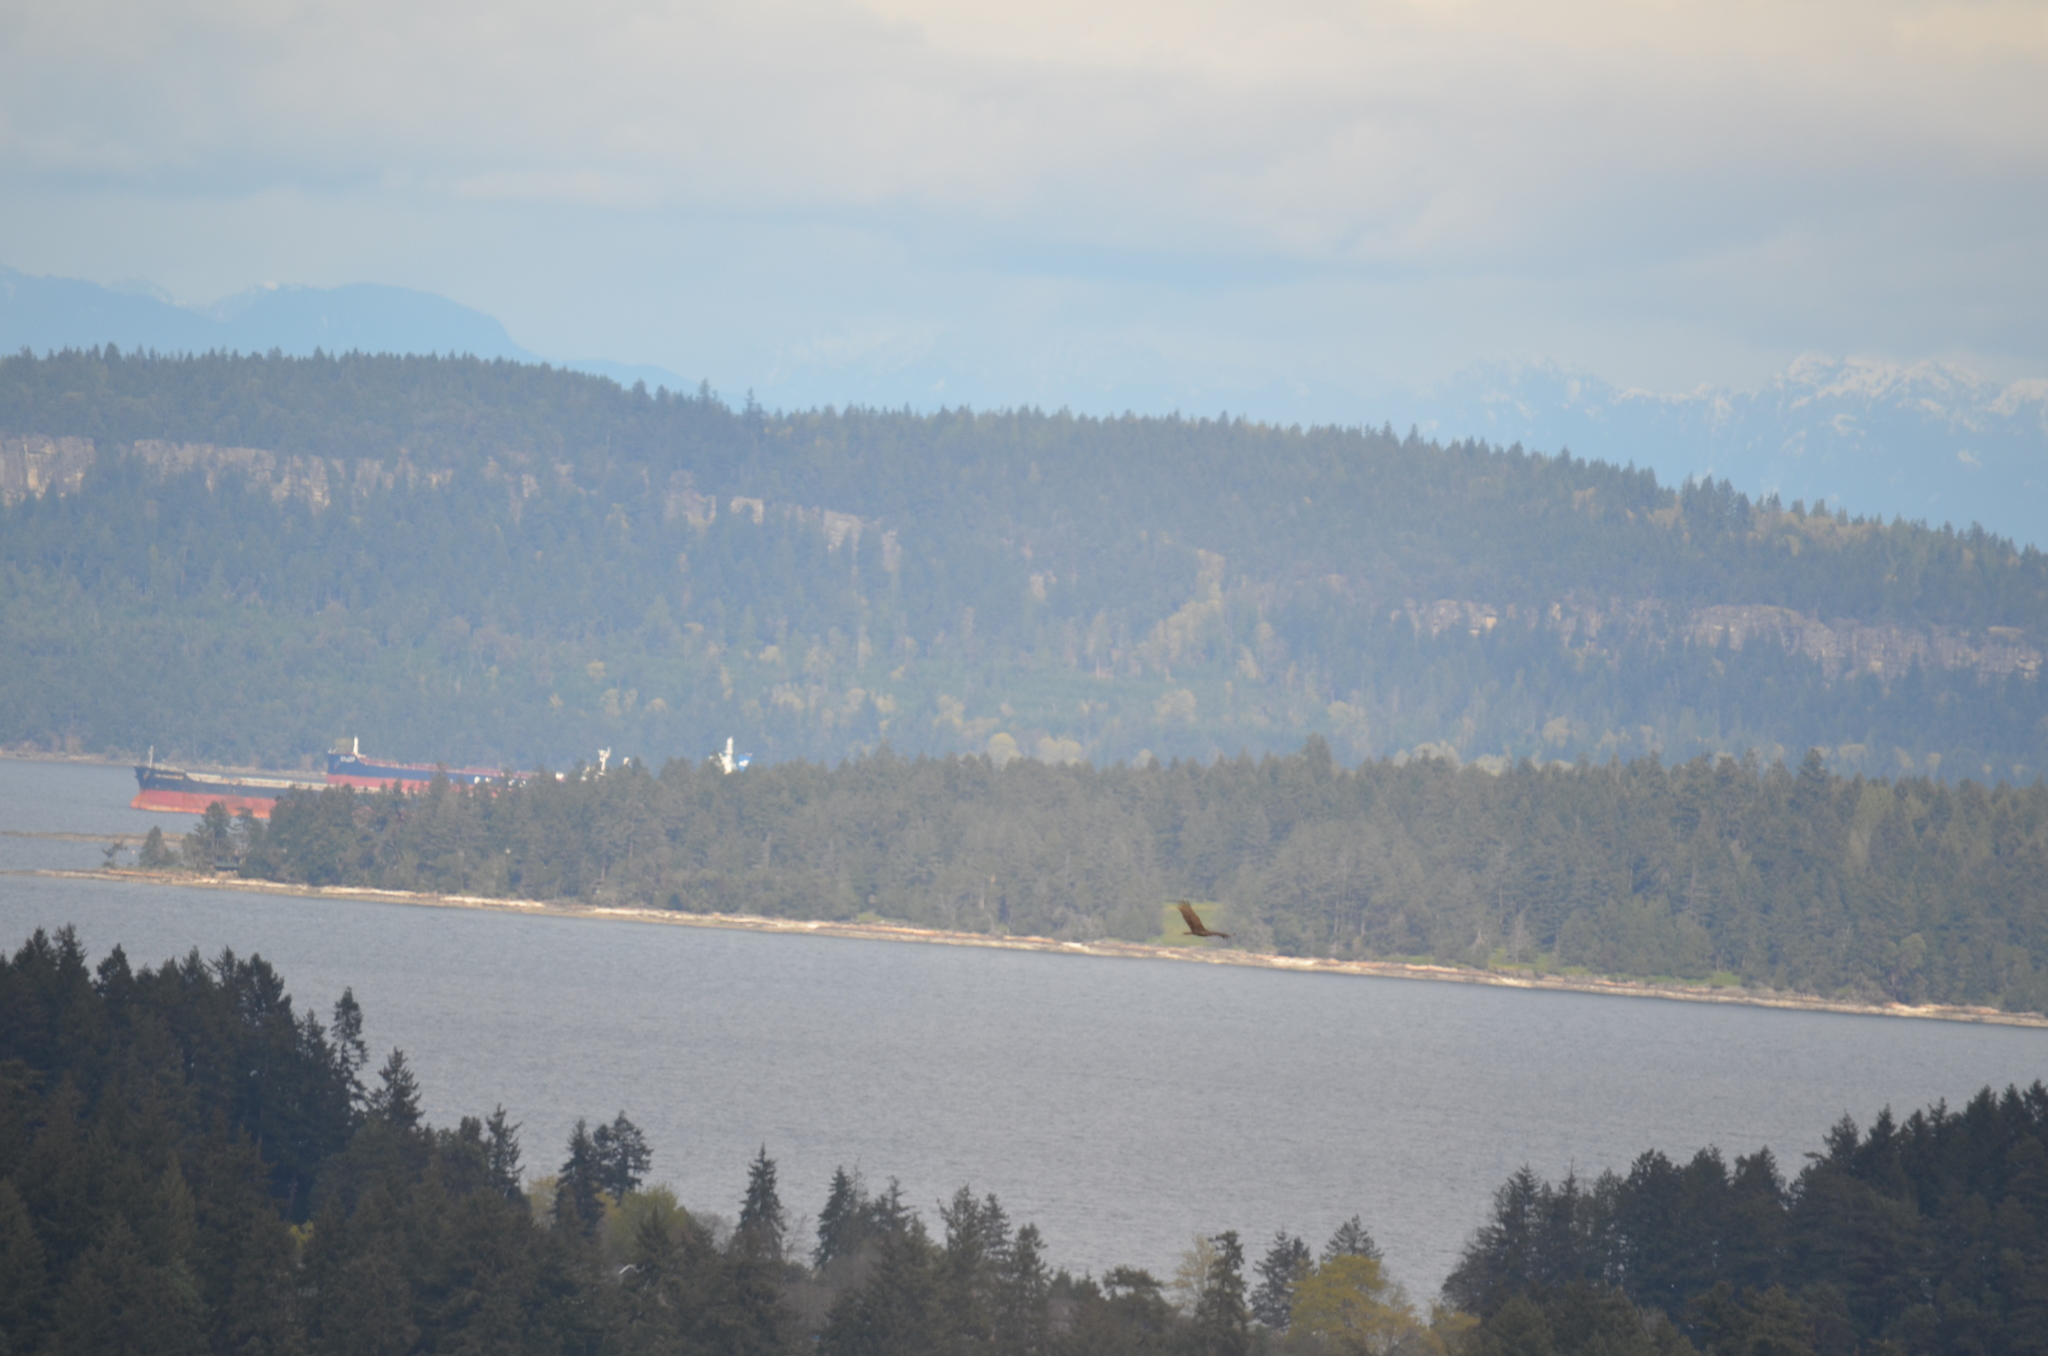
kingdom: Animalia
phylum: Chordata
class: Aves
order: Accipitriformes
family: Cathartidae
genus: Cathartes
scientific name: Cathartes aura
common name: Turkey vulture
